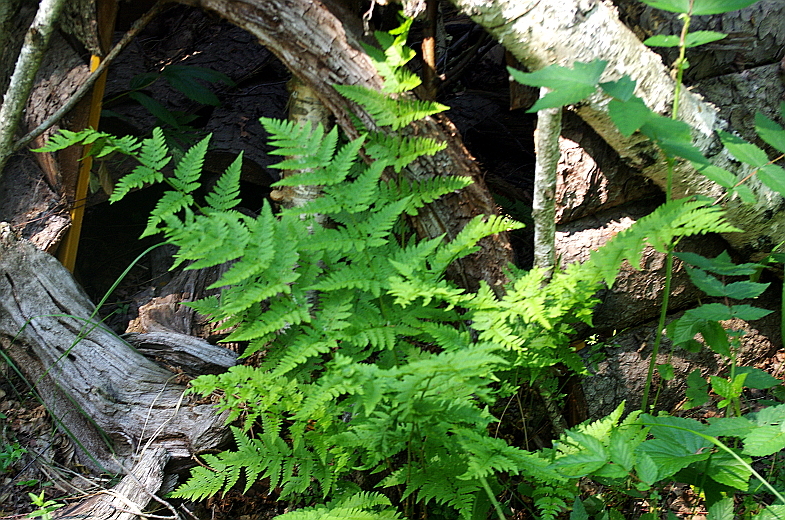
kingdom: Plantae
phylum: Tracheophyta
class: Polypodiopsida
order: Polypodiales
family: Dryopteridaceae
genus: Dryopteris
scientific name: Dryopteris carthusiana
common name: Narrow buckler-fern
